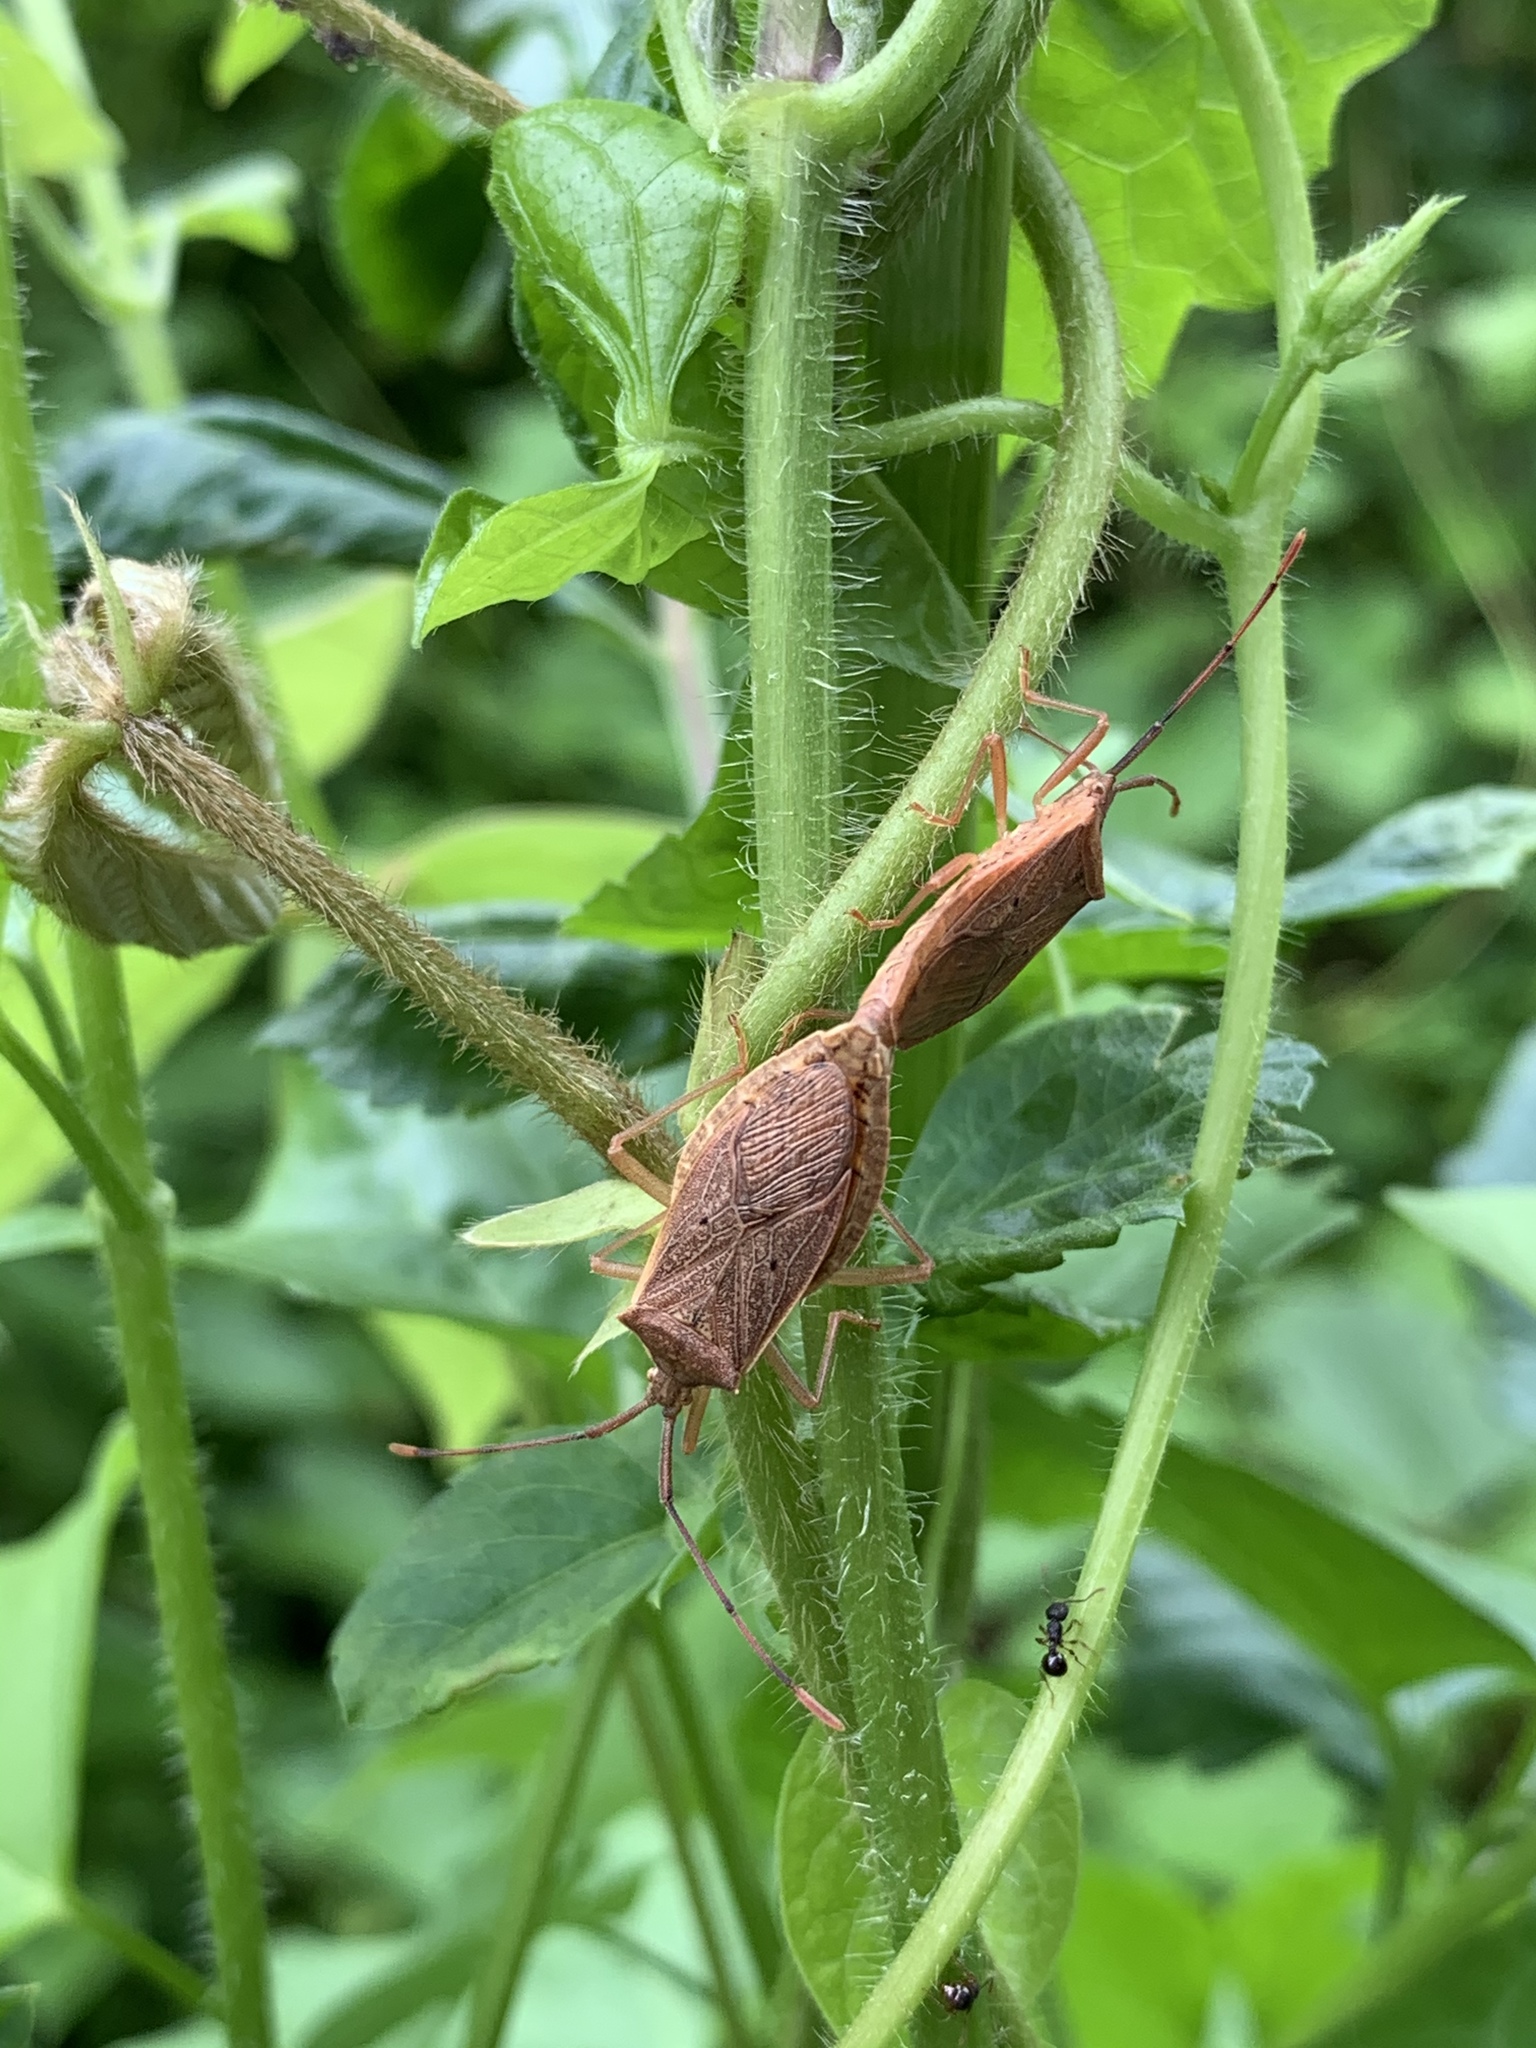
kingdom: Animalia
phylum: Arthropoda
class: Insecta
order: Hemiptera
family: Coreidae
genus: Homoeocerus
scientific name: Homoeocerus unipunctatus
